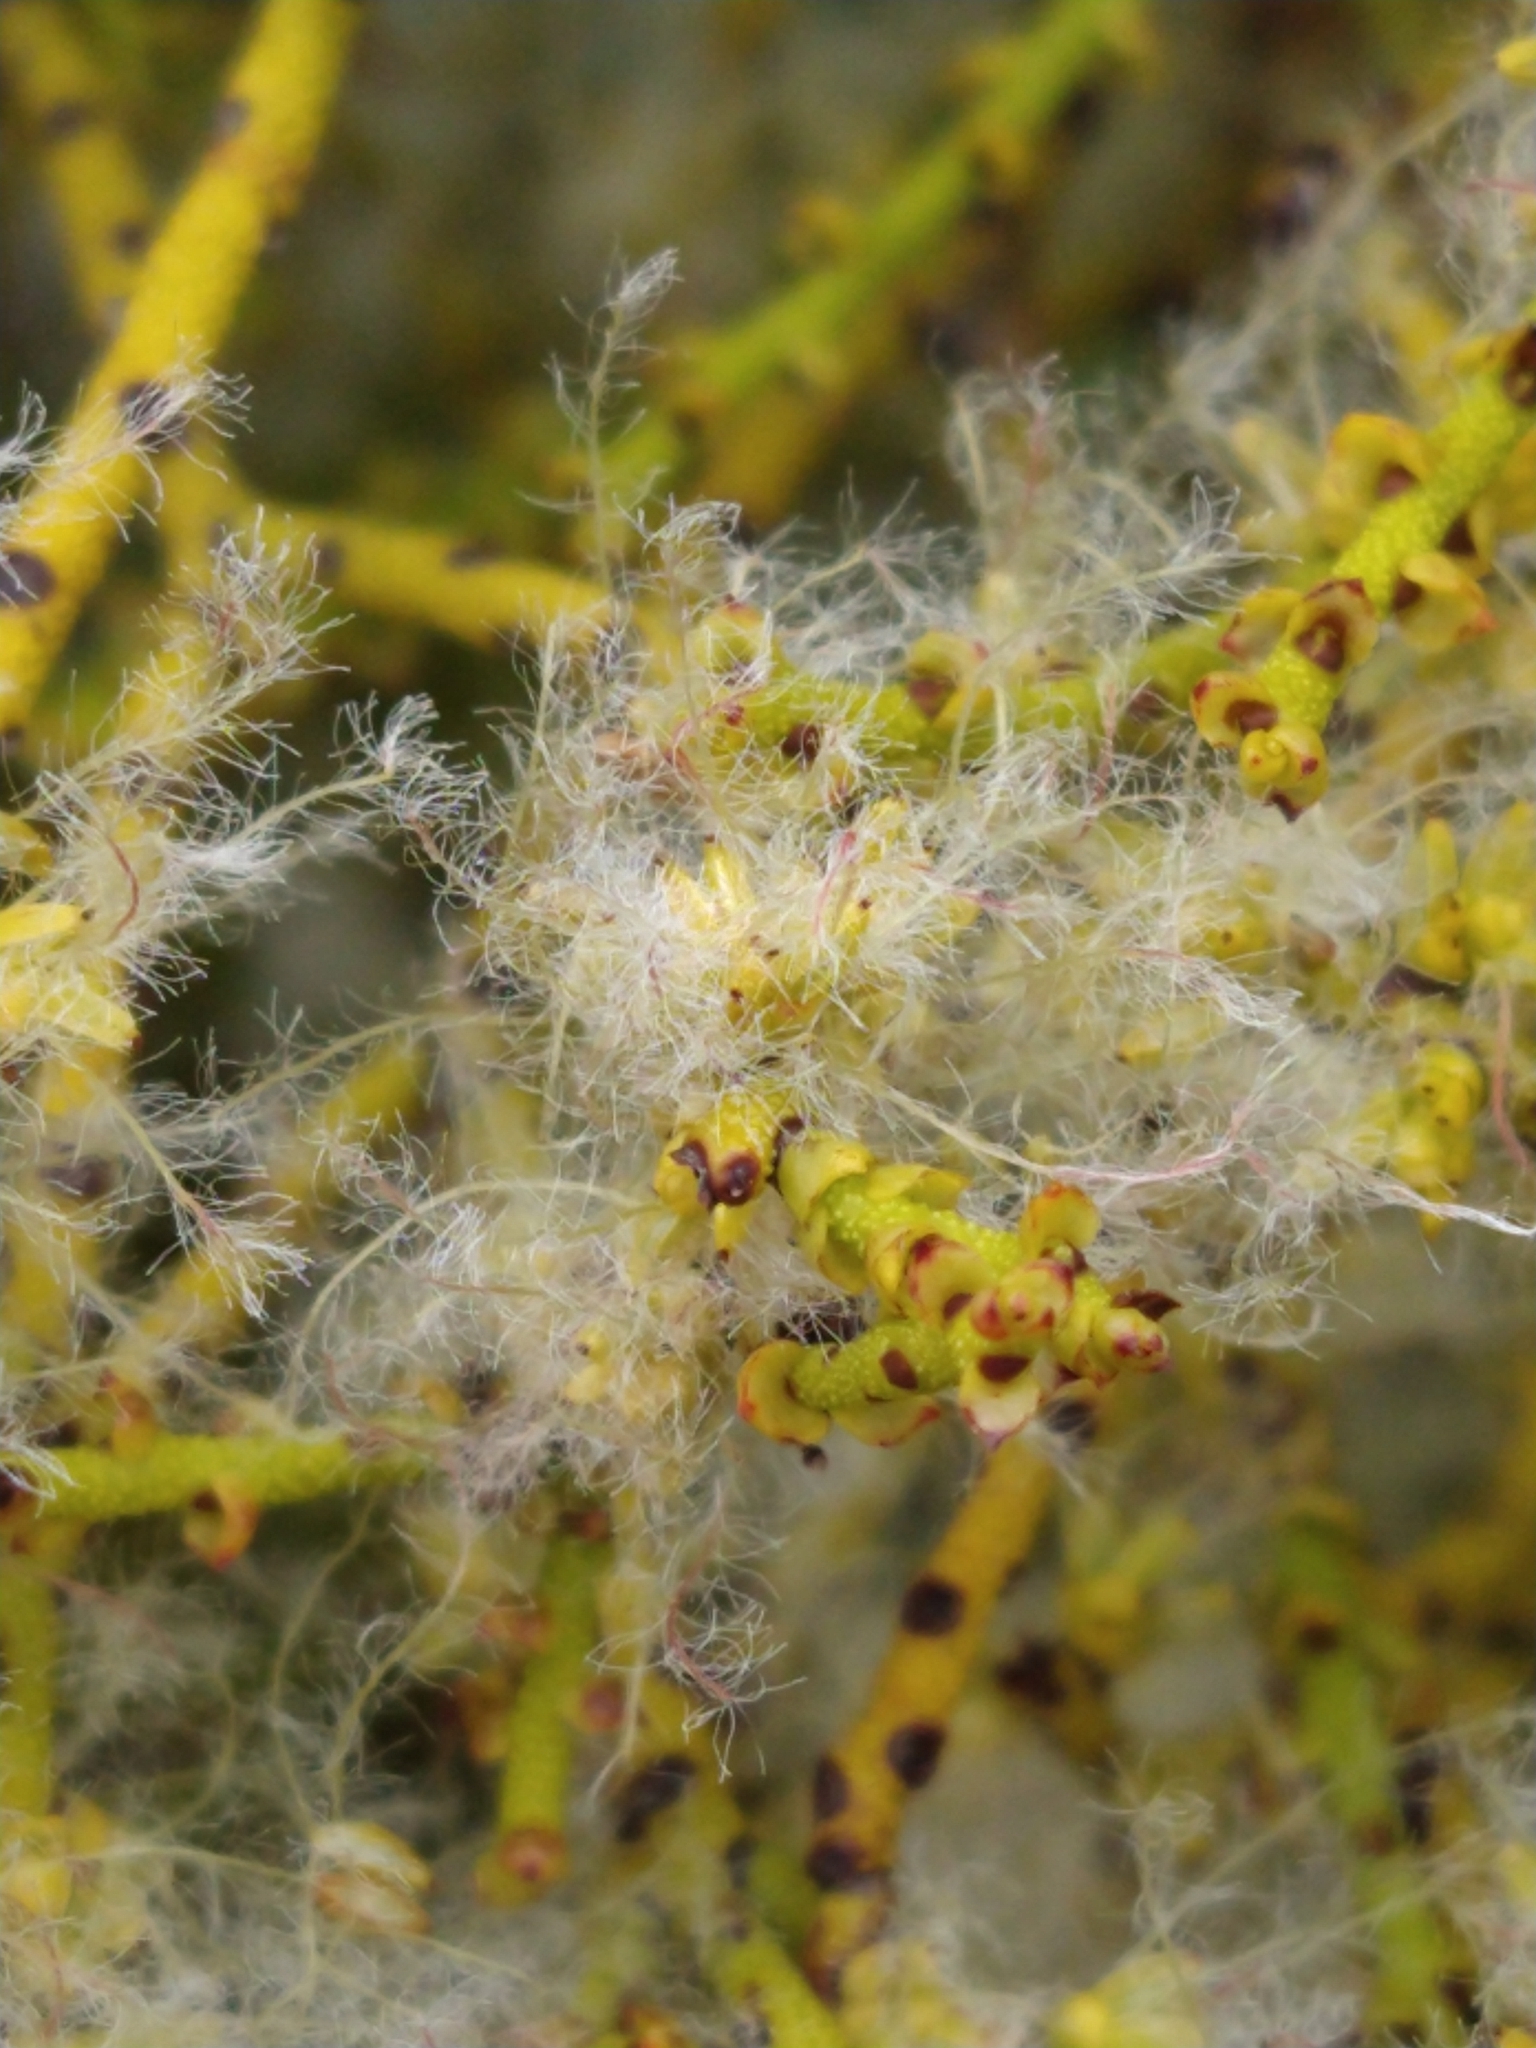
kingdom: Plantae
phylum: Tracheophyta
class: Magnoliopsida
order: Santalales
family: Misodendraceae
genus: Misodendrum
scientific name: Misodendrum punctulatum
